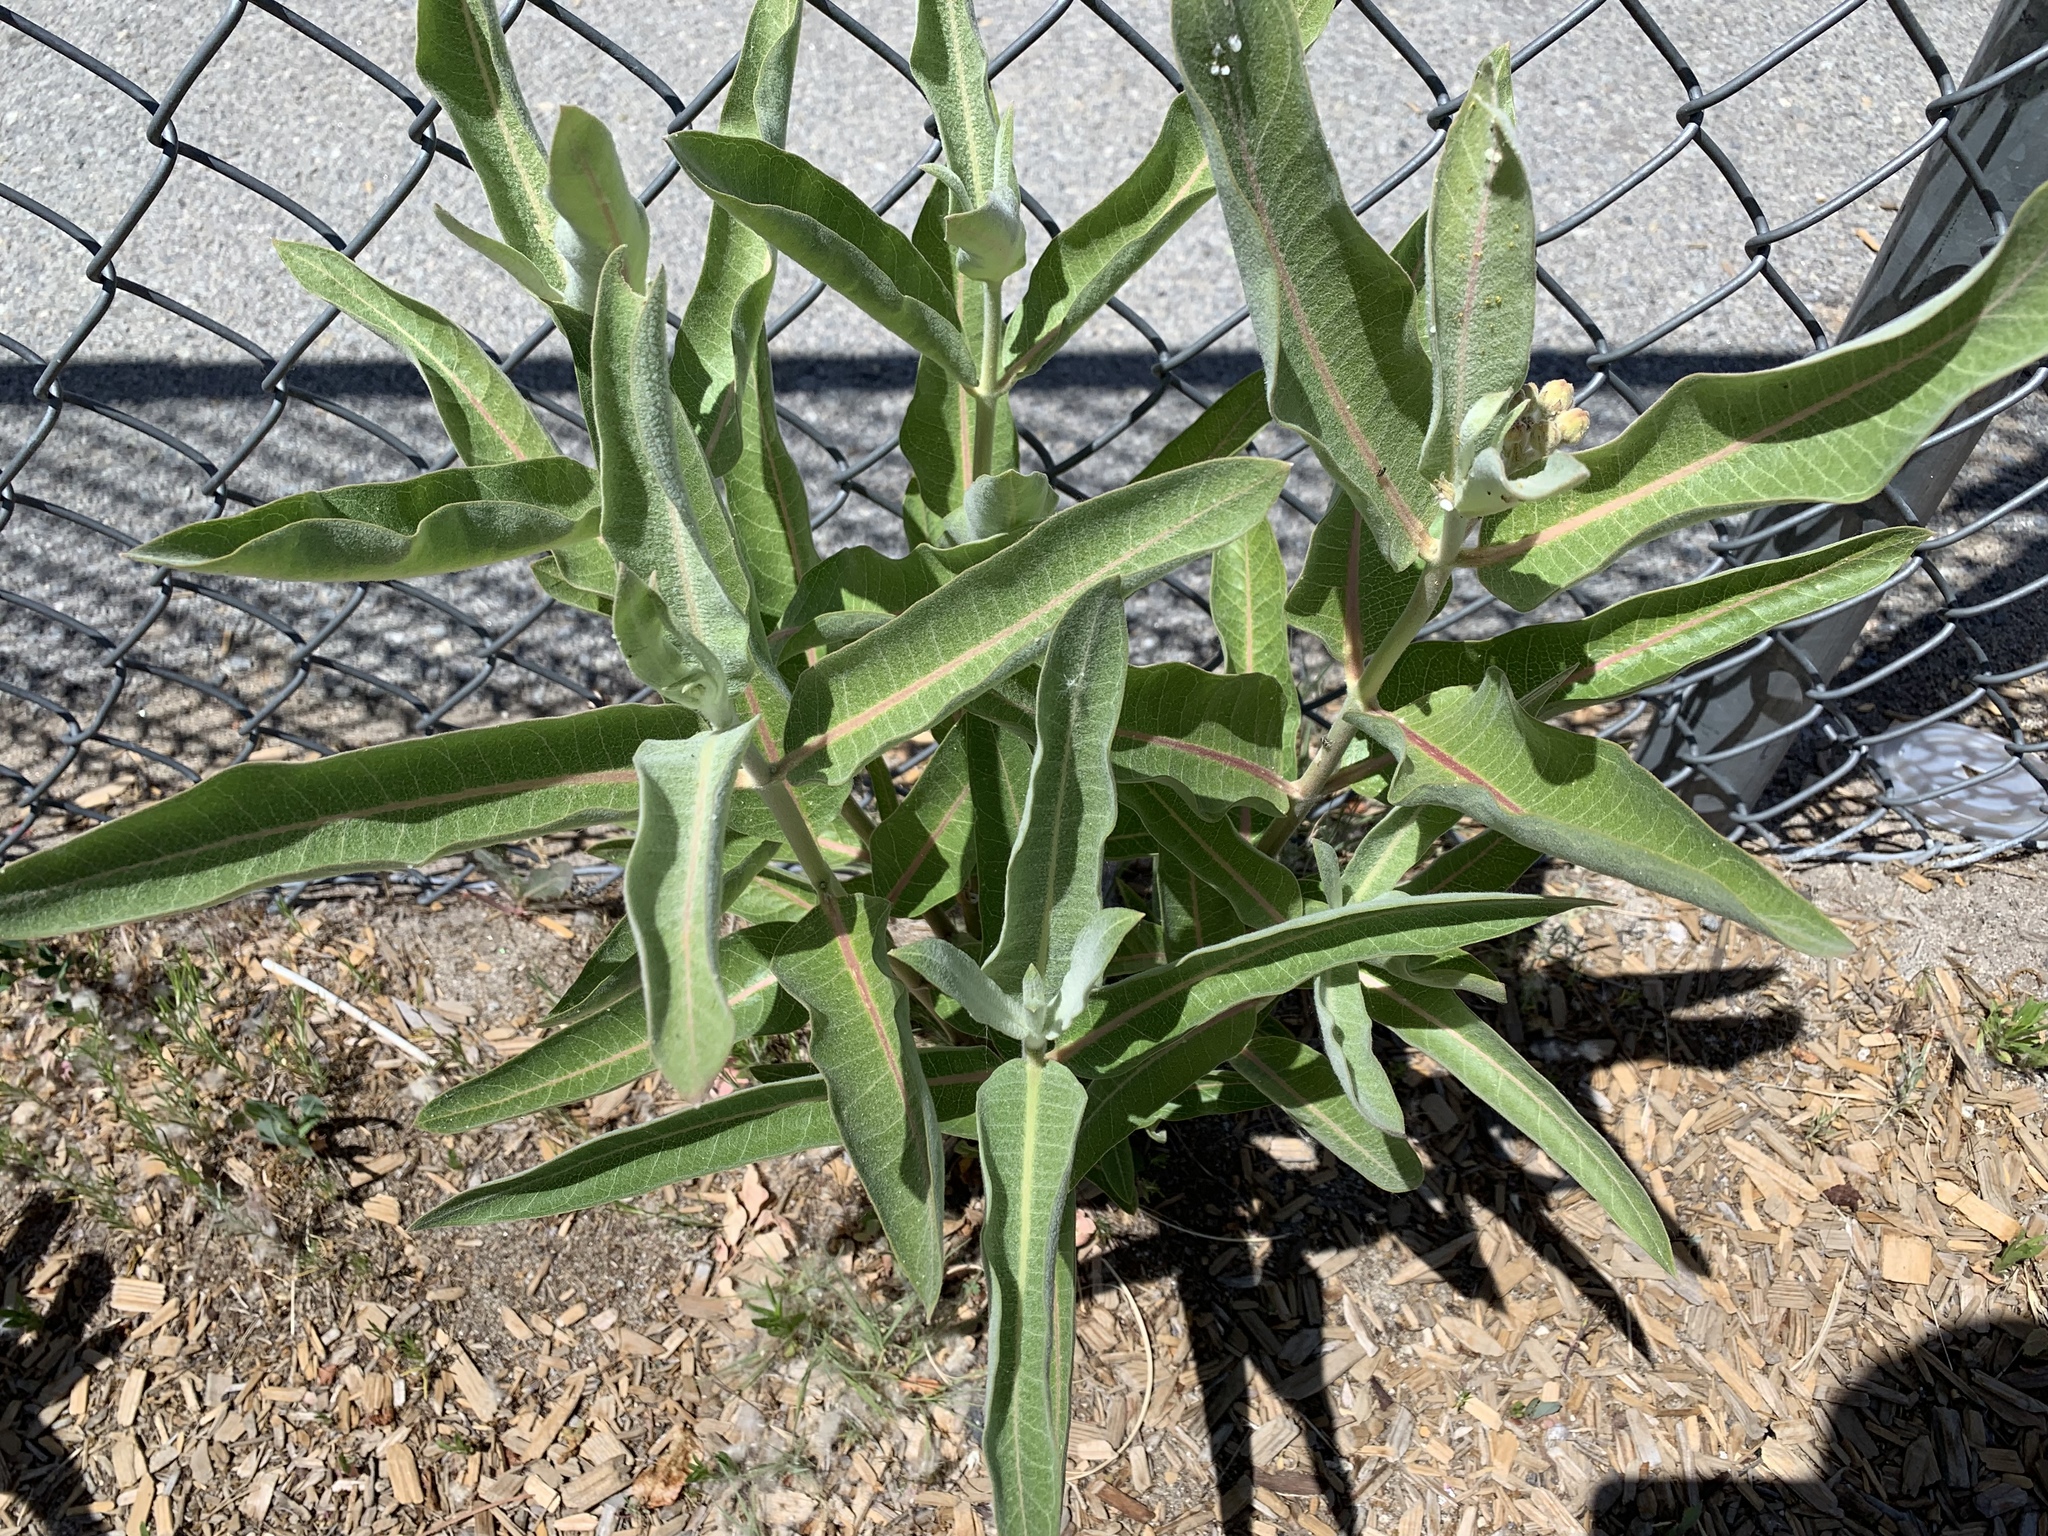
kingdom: Plantae
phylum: Tracheophyta
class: Magnoliopsida
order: Gentianales
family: Apocynaceae
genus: Asclepias
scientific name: Asclepias speciosa
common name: Showy milkweed
